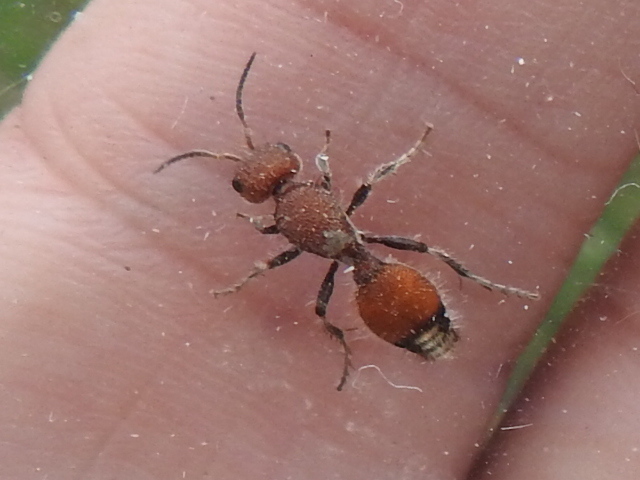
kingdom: Animalia
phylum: Arthropoda
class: Insecta
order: Hymenoptera
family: Mutillidae
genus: Dasymutilla
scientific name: Dasymutilla
